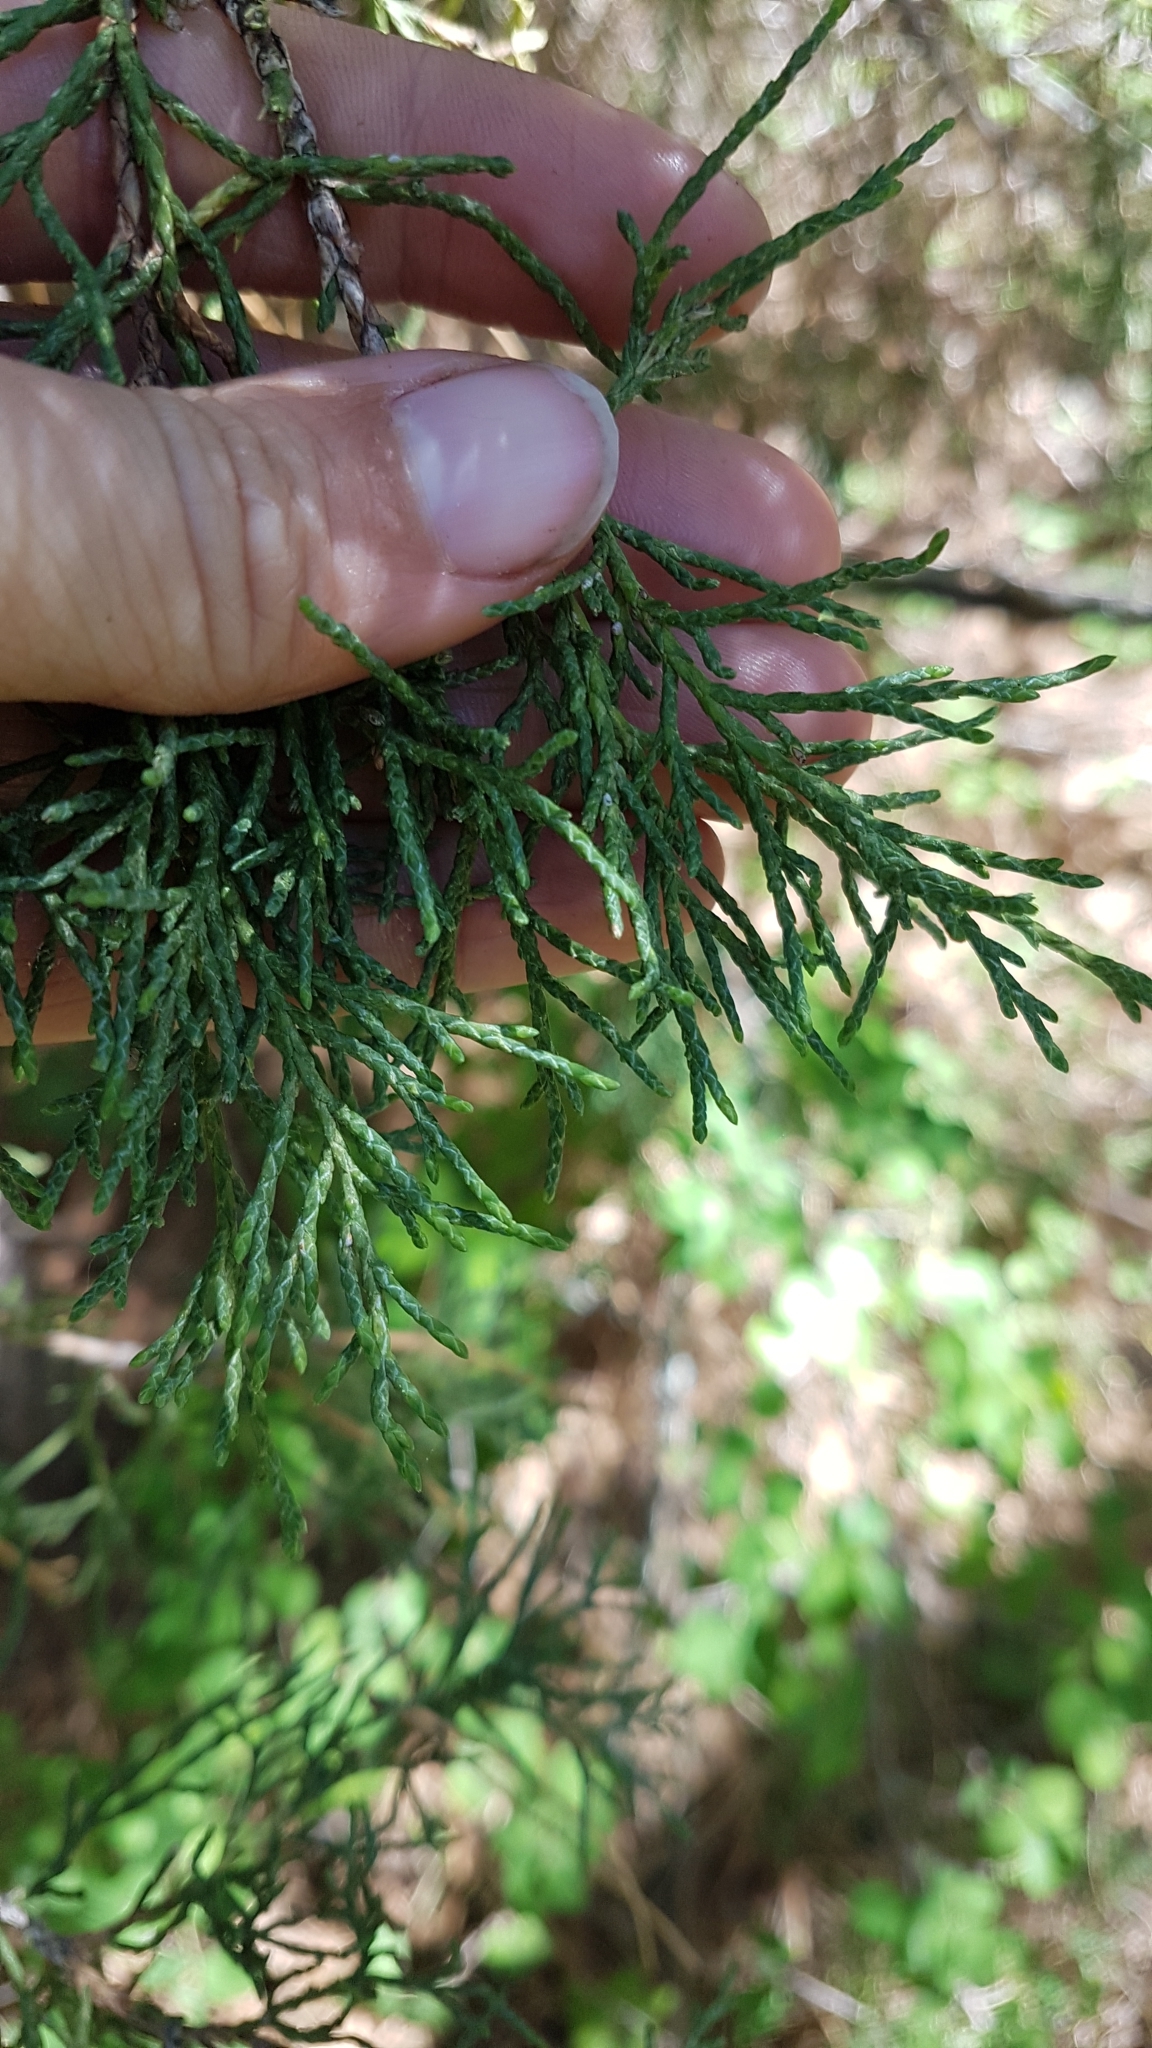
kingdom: Plantae
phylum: Tracheophyta
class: Pinopsida
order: Pinales
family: Cupressaceae
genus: Juniperus
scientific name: Juniperus scopulorum
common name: Rocky mountain juniper
